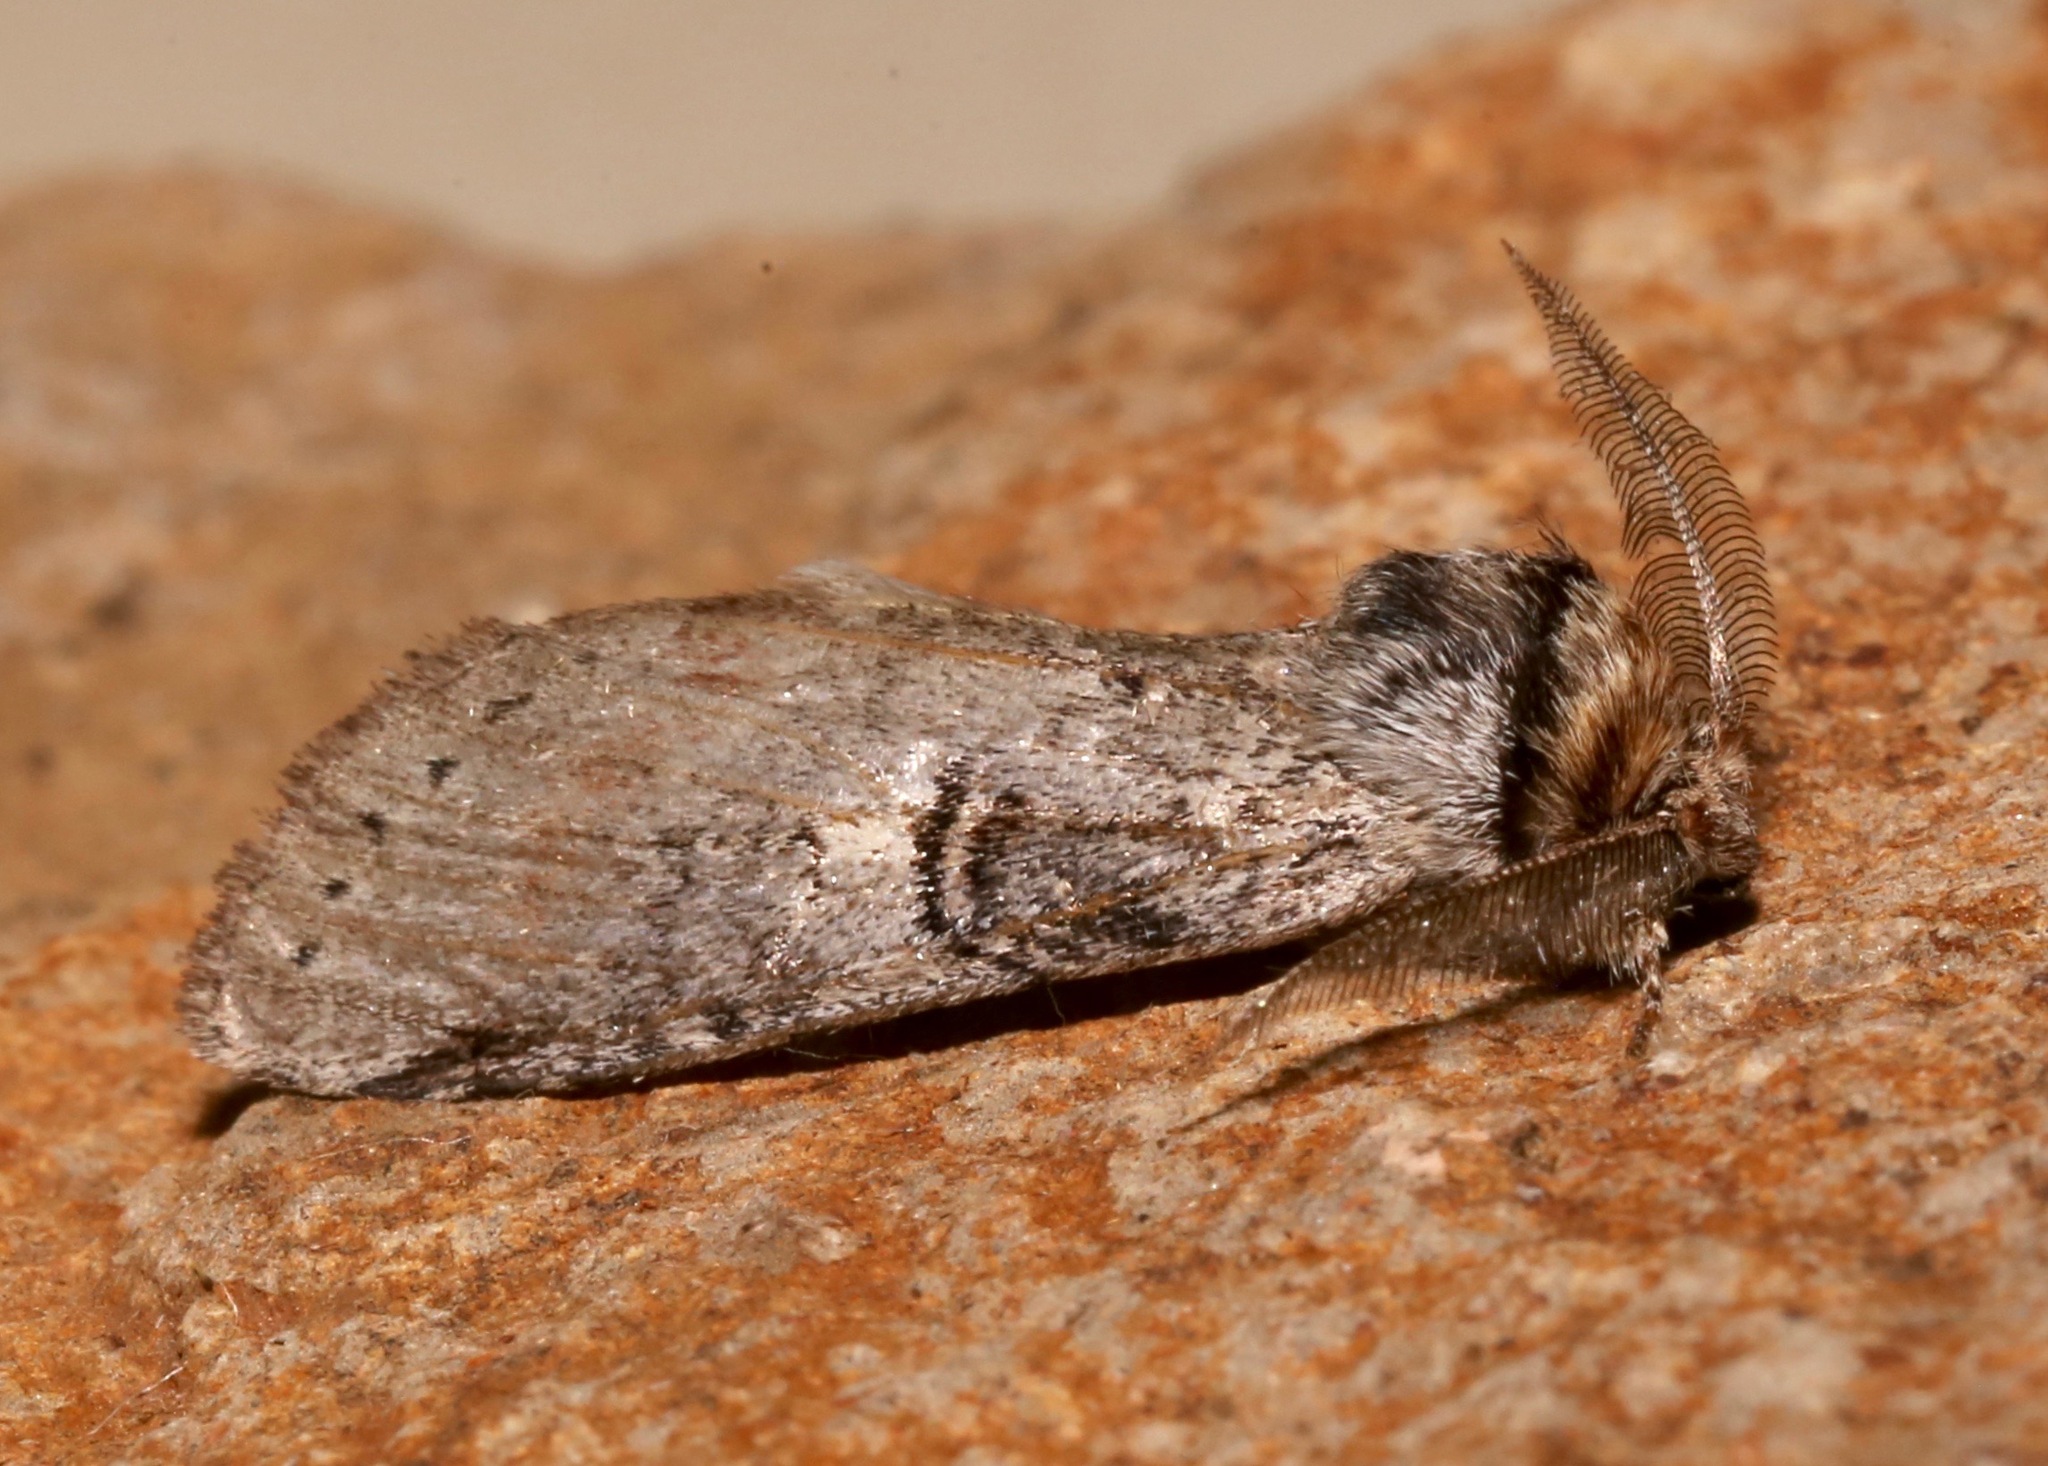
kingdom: Animalia
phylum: Arthropoda
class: Insecta
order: Lepidoptera
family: Notodontidae
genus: Scevesia
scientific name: Scevesia angustiora
